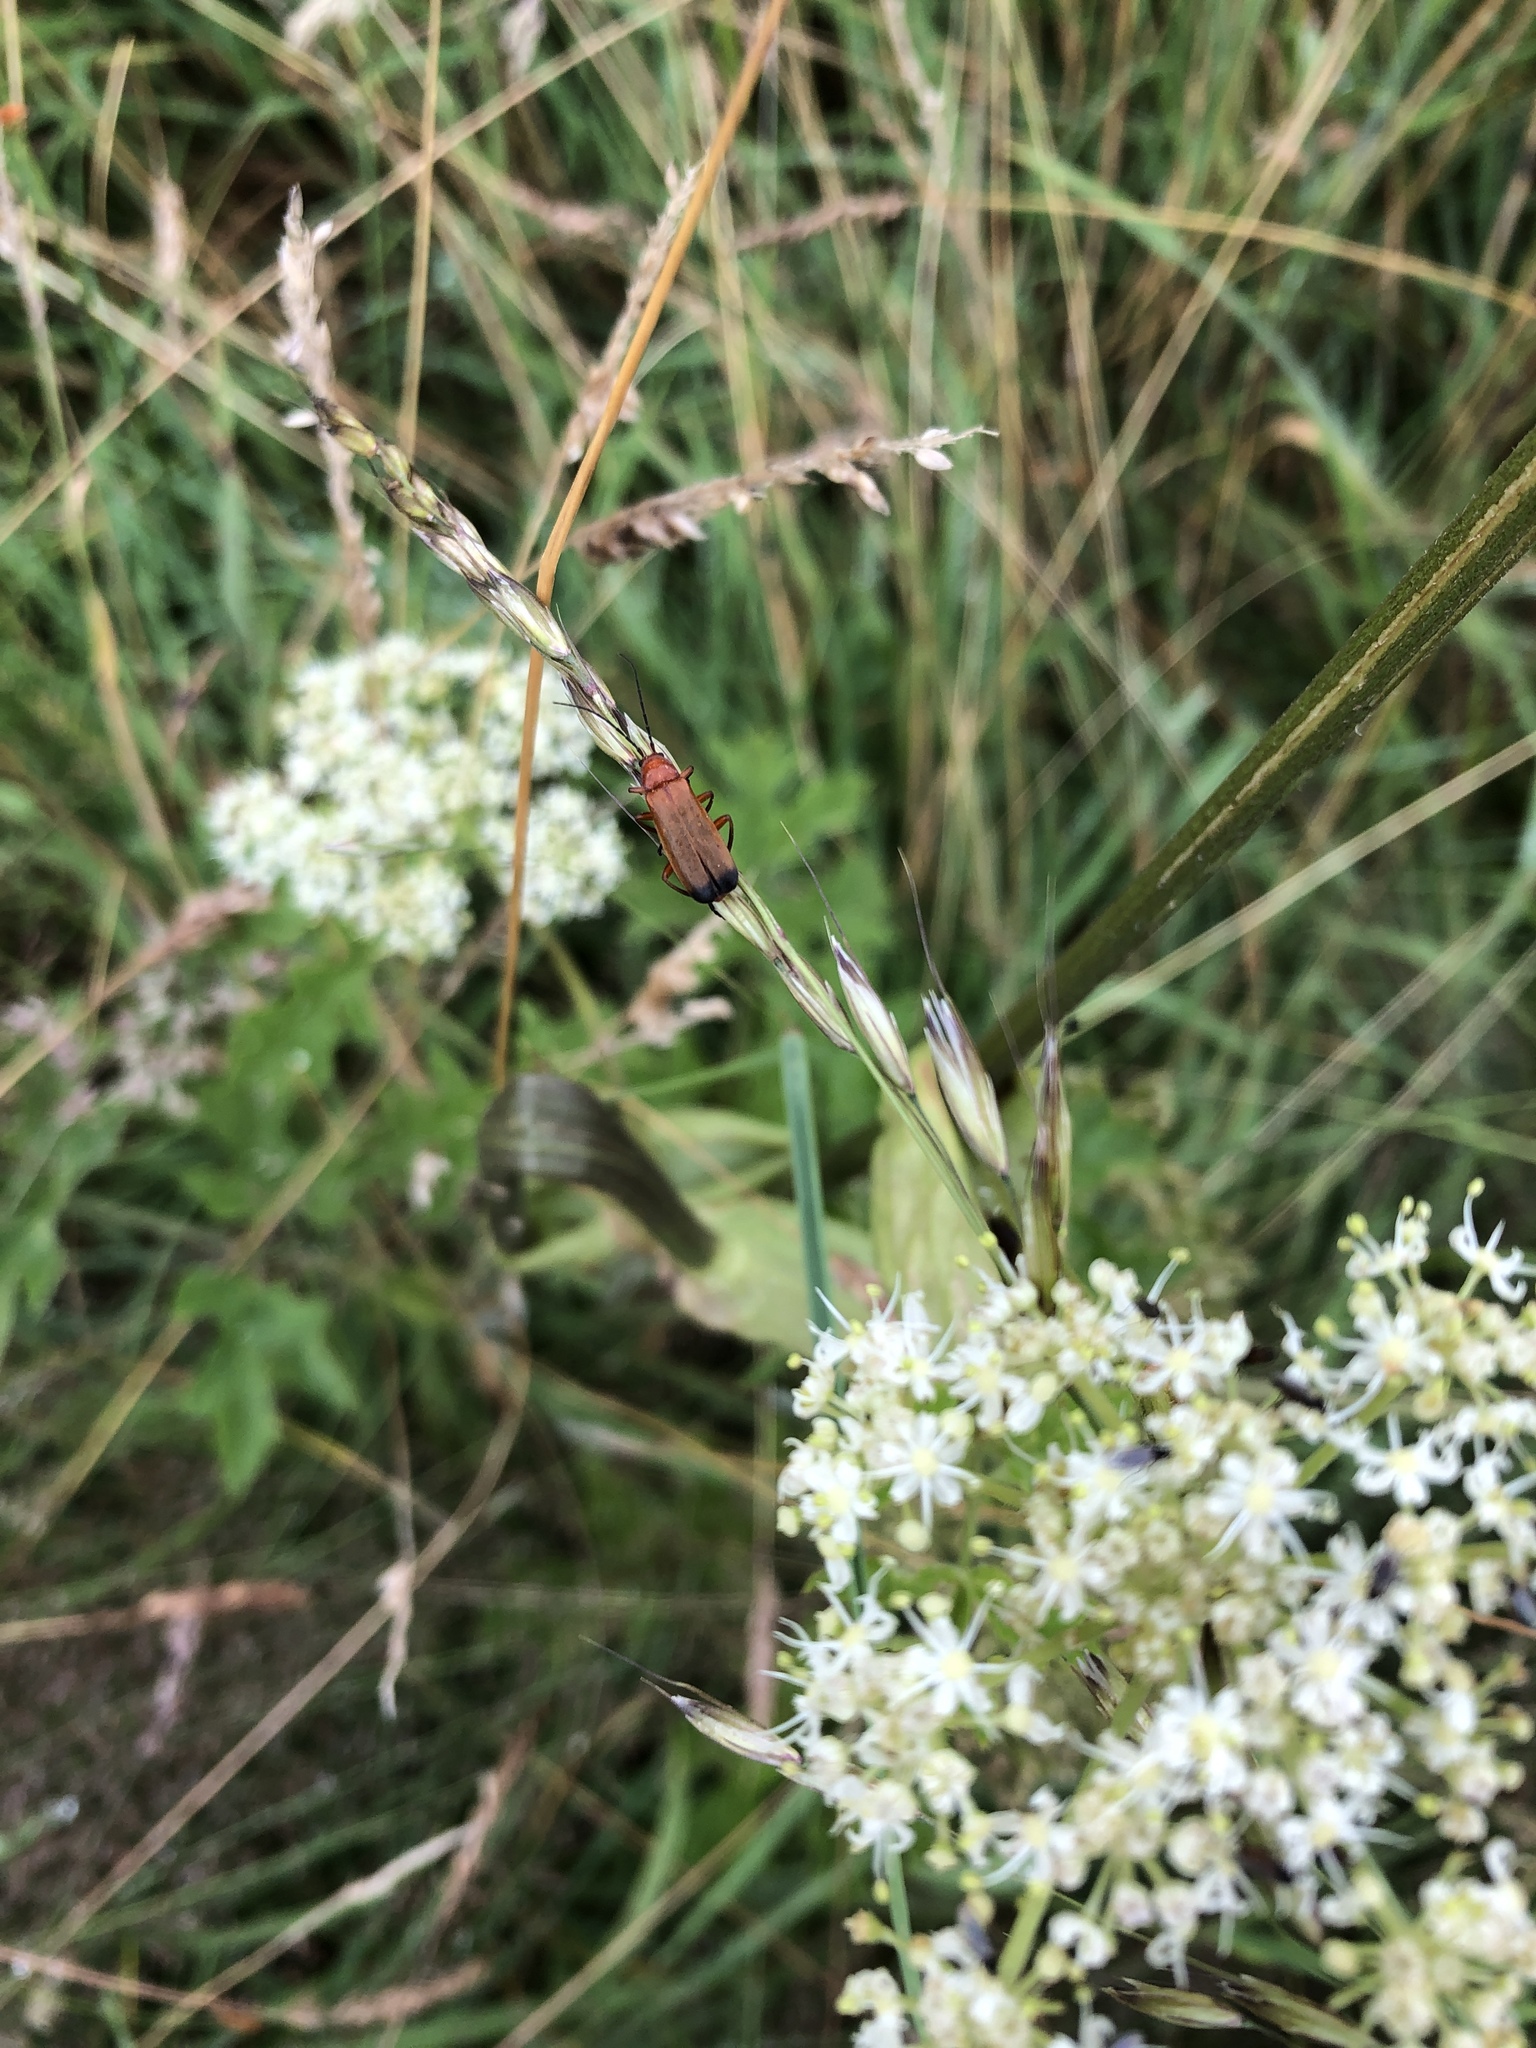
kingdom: Animalia
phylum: Arthropoda
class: Insecta
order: Coleoptera
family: Cantharidae
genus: Rhagonycha
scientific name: Rhagonycha fulva
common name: Common red soldier beetle
